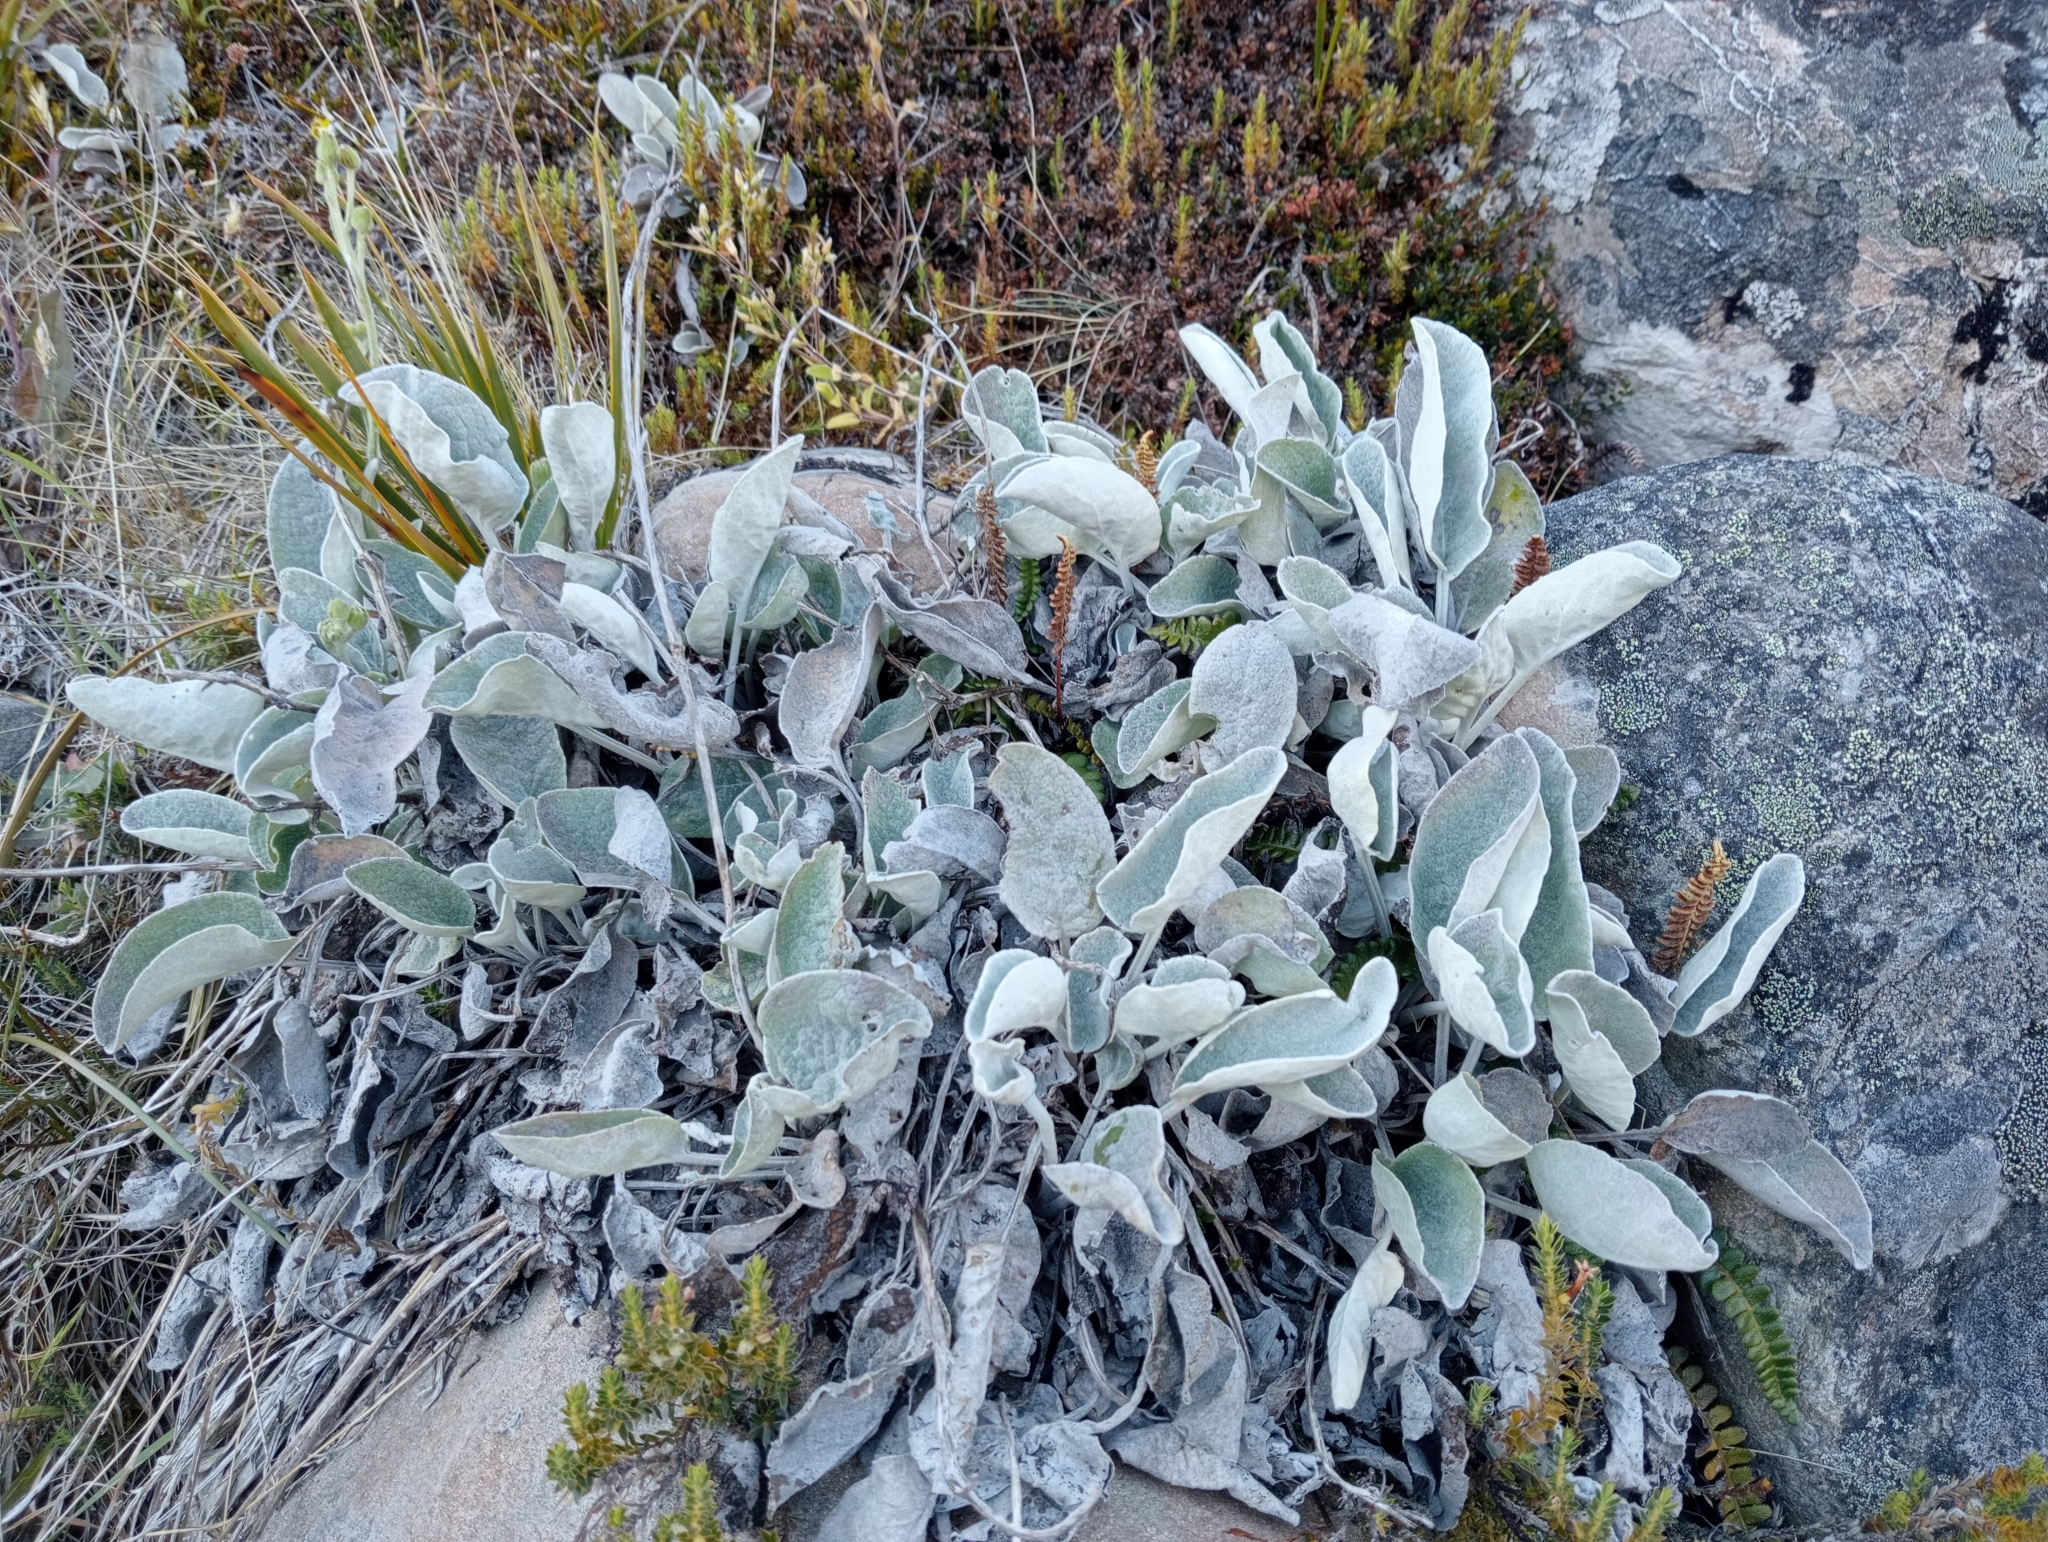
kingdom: Plantae
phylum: Tracheophyta
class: Magnoliopsida
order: Asterales
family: Asteraceae
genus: Brachyglottis
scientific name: Brachyglottis haastii
